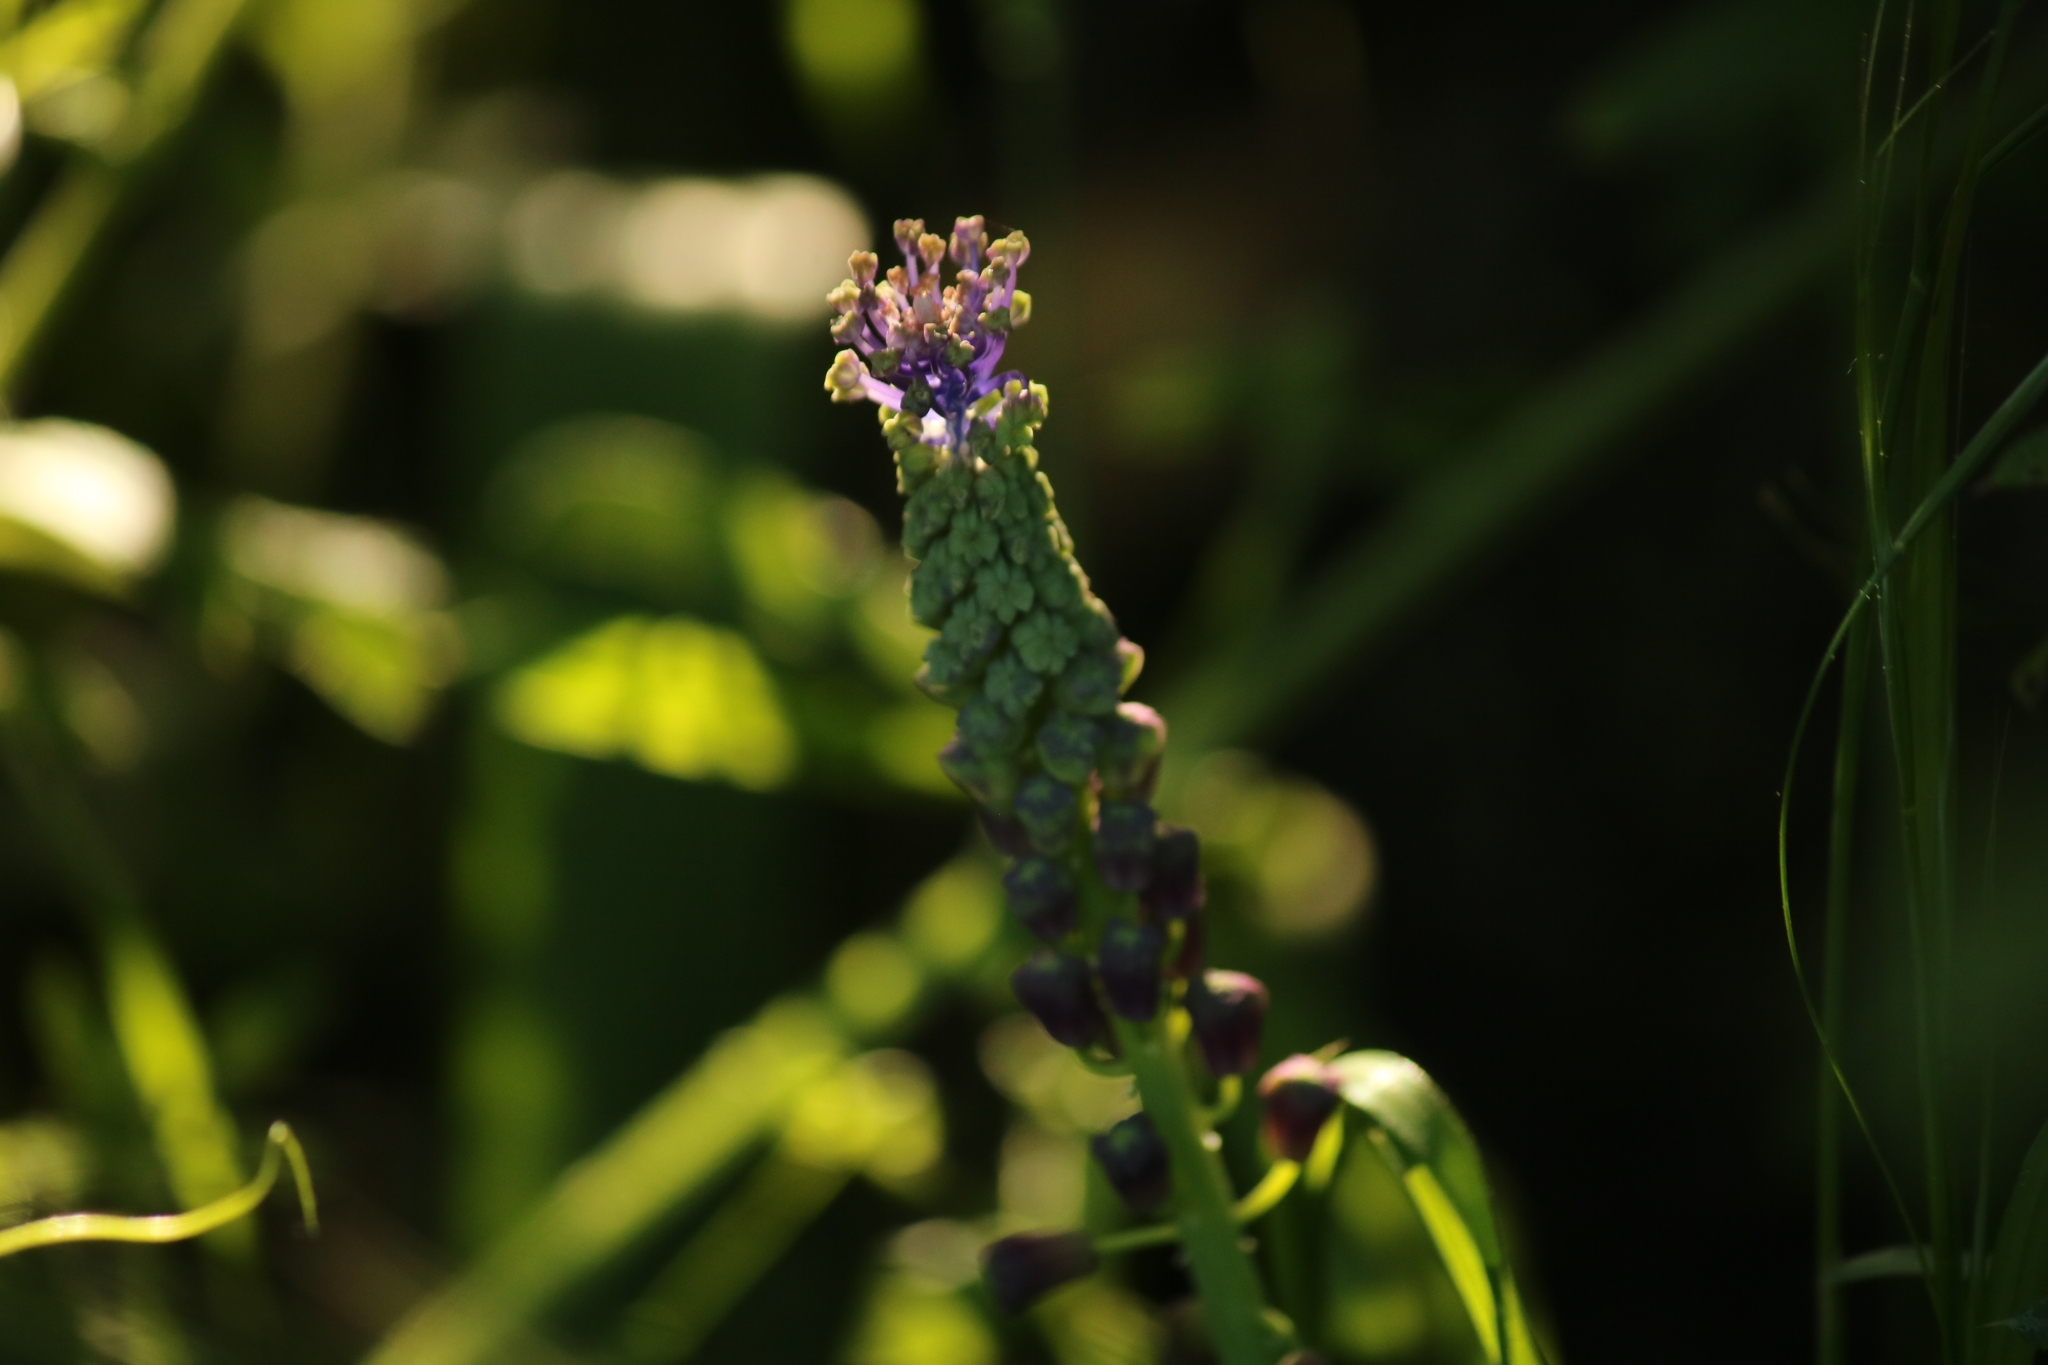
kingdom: Plantae
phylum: Tracheophyta
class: Liliopsida
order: Asparagales
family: Asparagaceae
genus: Muscari
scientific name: Muscari comosum
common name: Tassel hyacinth
